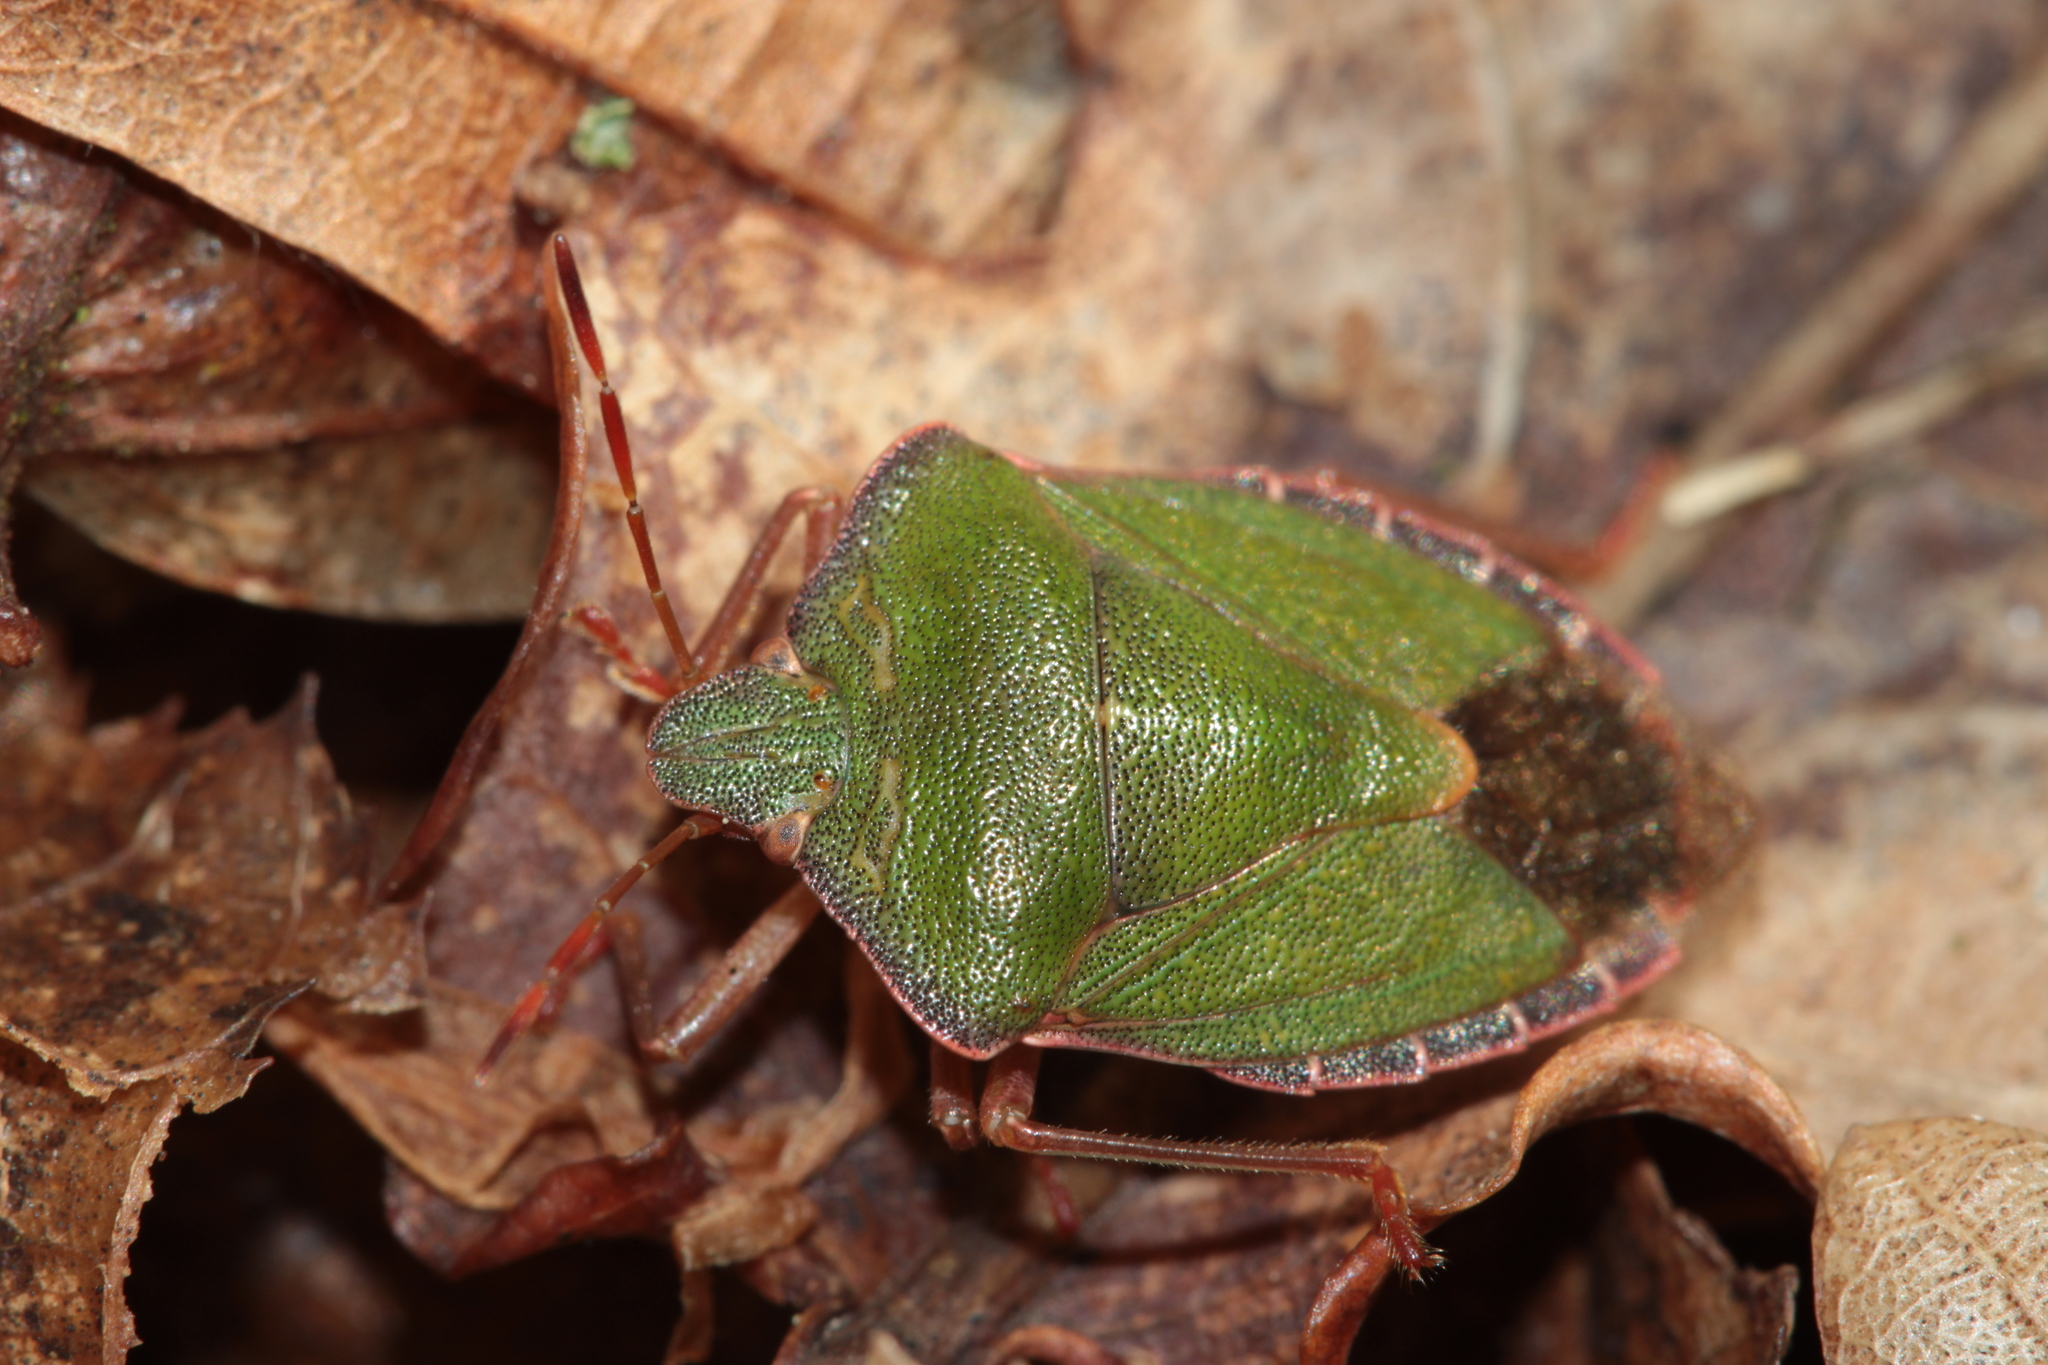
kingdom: Animalia
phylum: Arthropoda
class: Insecta
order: Hemiptera
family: Pentatomidae
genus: Palomena
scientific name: Palomena prasina
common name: Green shieldbug
